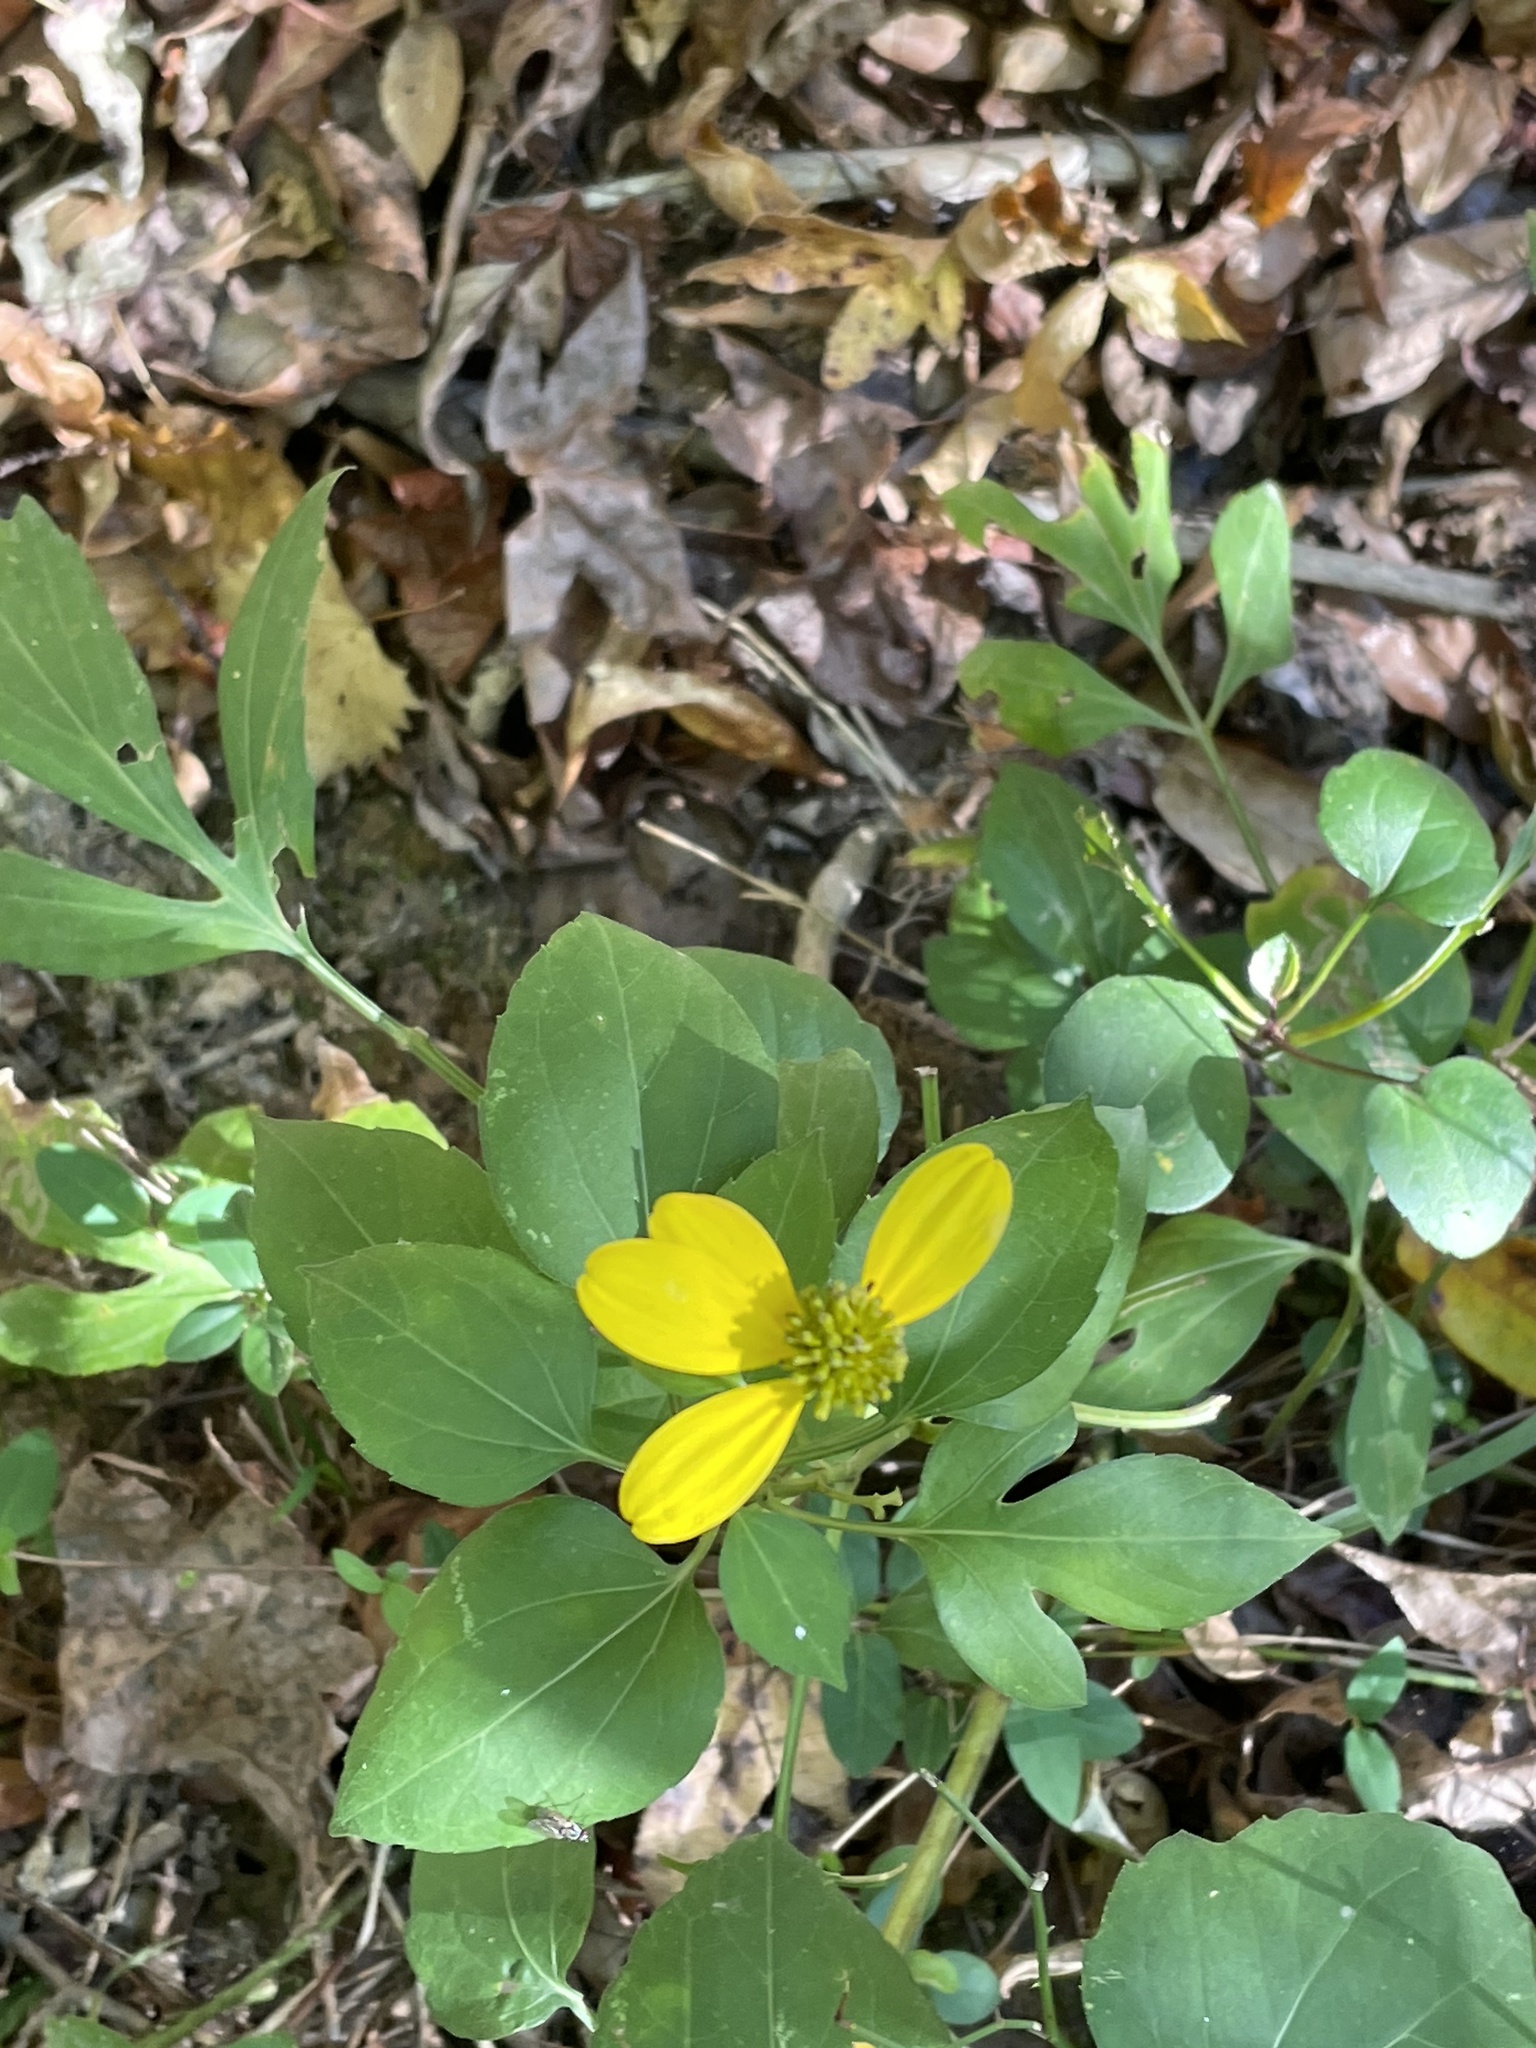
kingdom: Plantae
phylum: Tracheophyta
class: Magnoliopsida
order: Asterales
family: Asteraceae
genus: Rudbeckia
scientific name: Rudbeckia laciniata
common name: Coneflower
